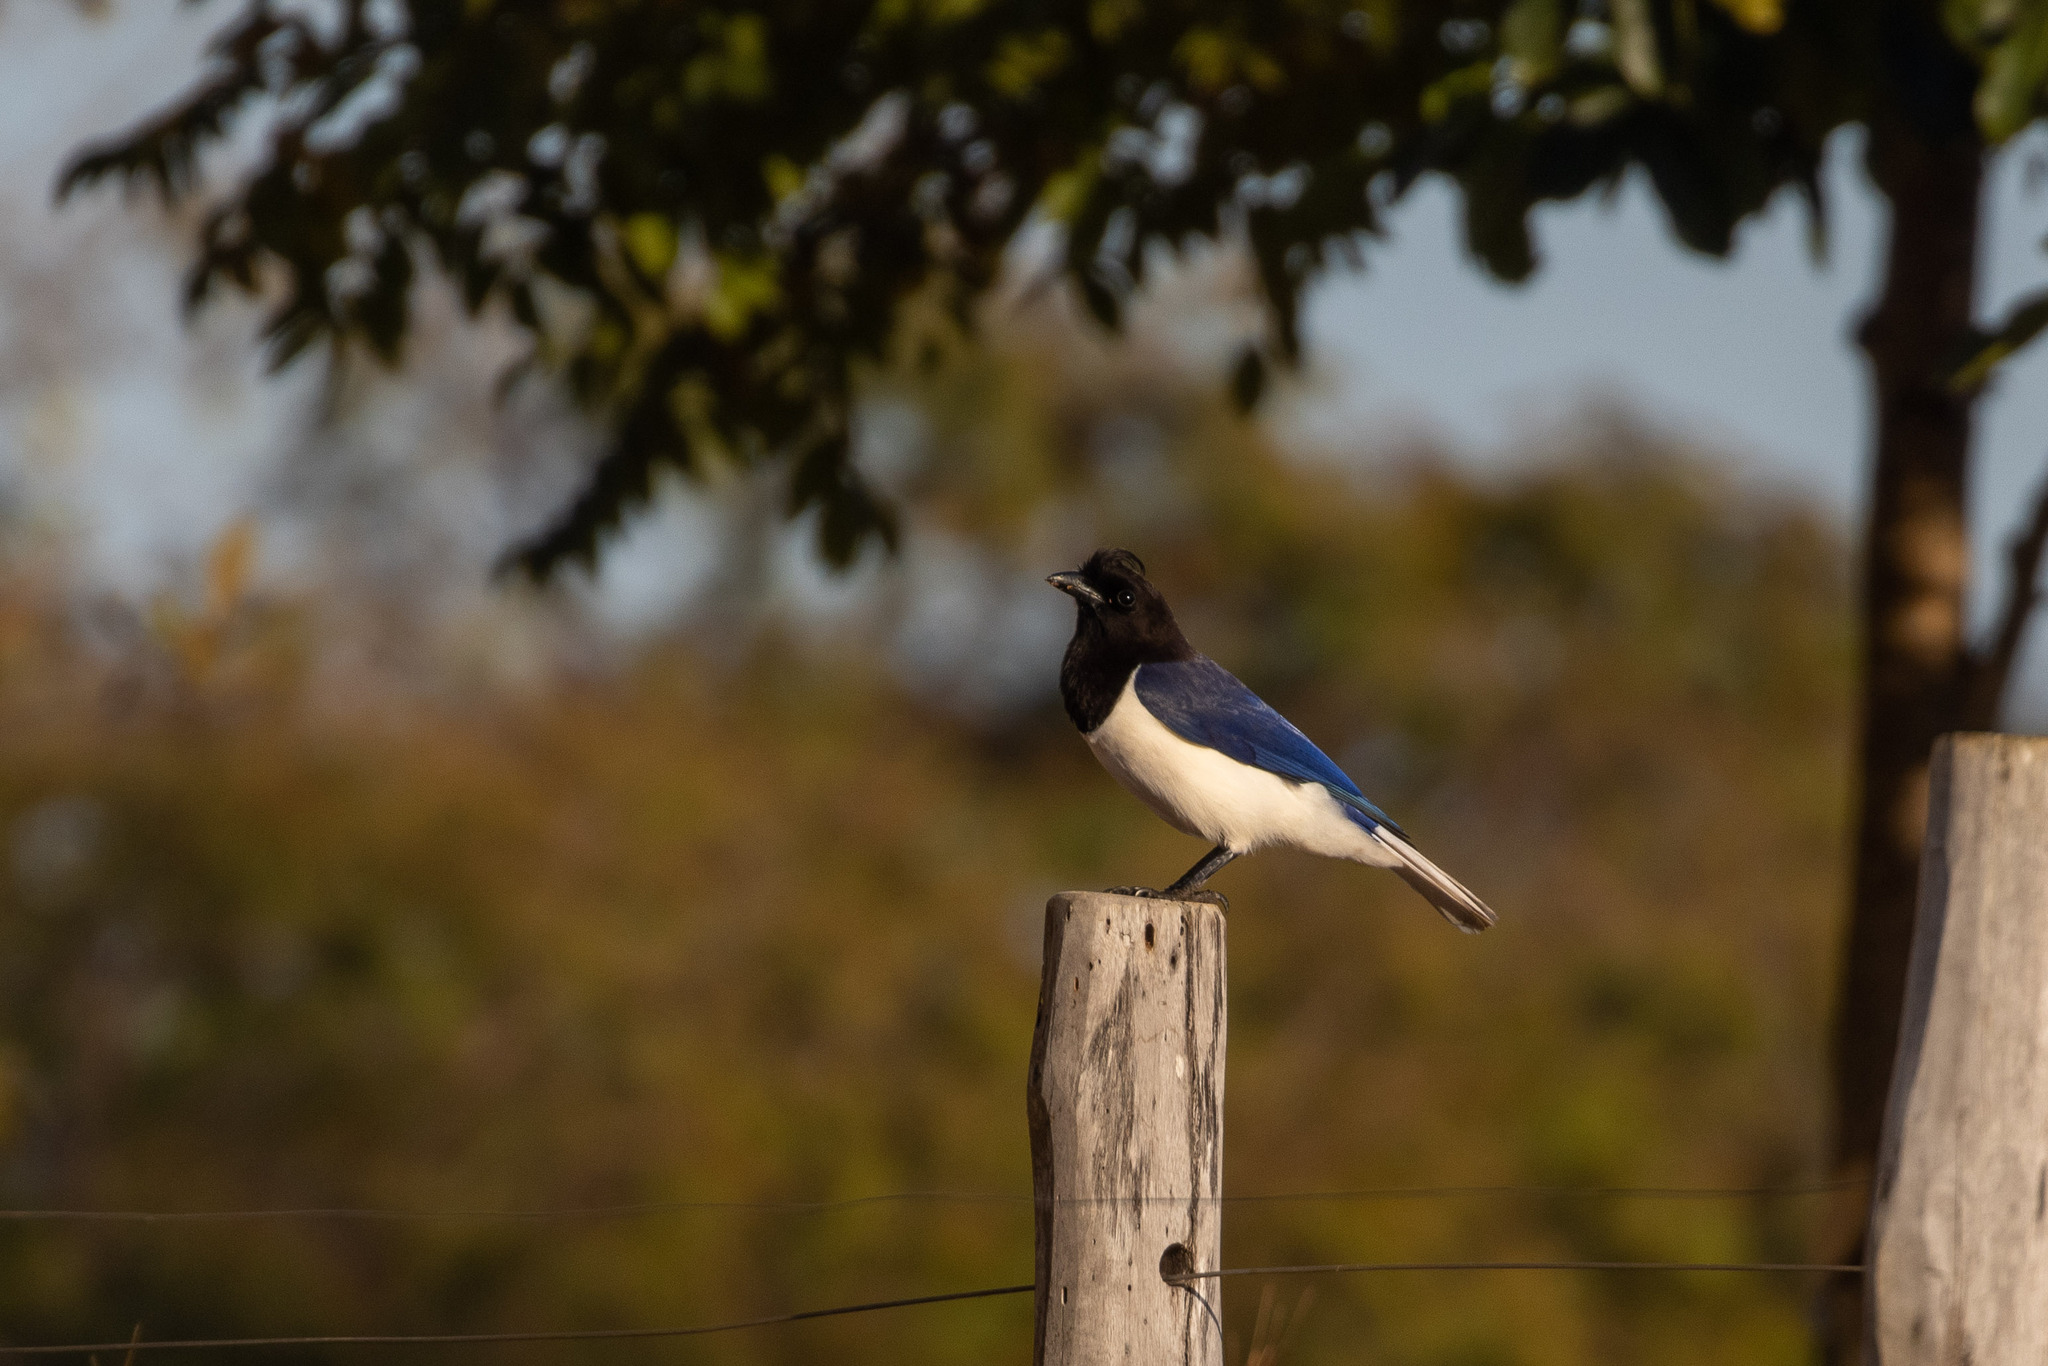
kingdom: Animalia
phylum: Chordata
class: Aves
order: Passeriformes
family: Corvidae
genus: Cyanocorax
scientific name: Cyanocorax cristatellus
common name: Curl-crested jay
